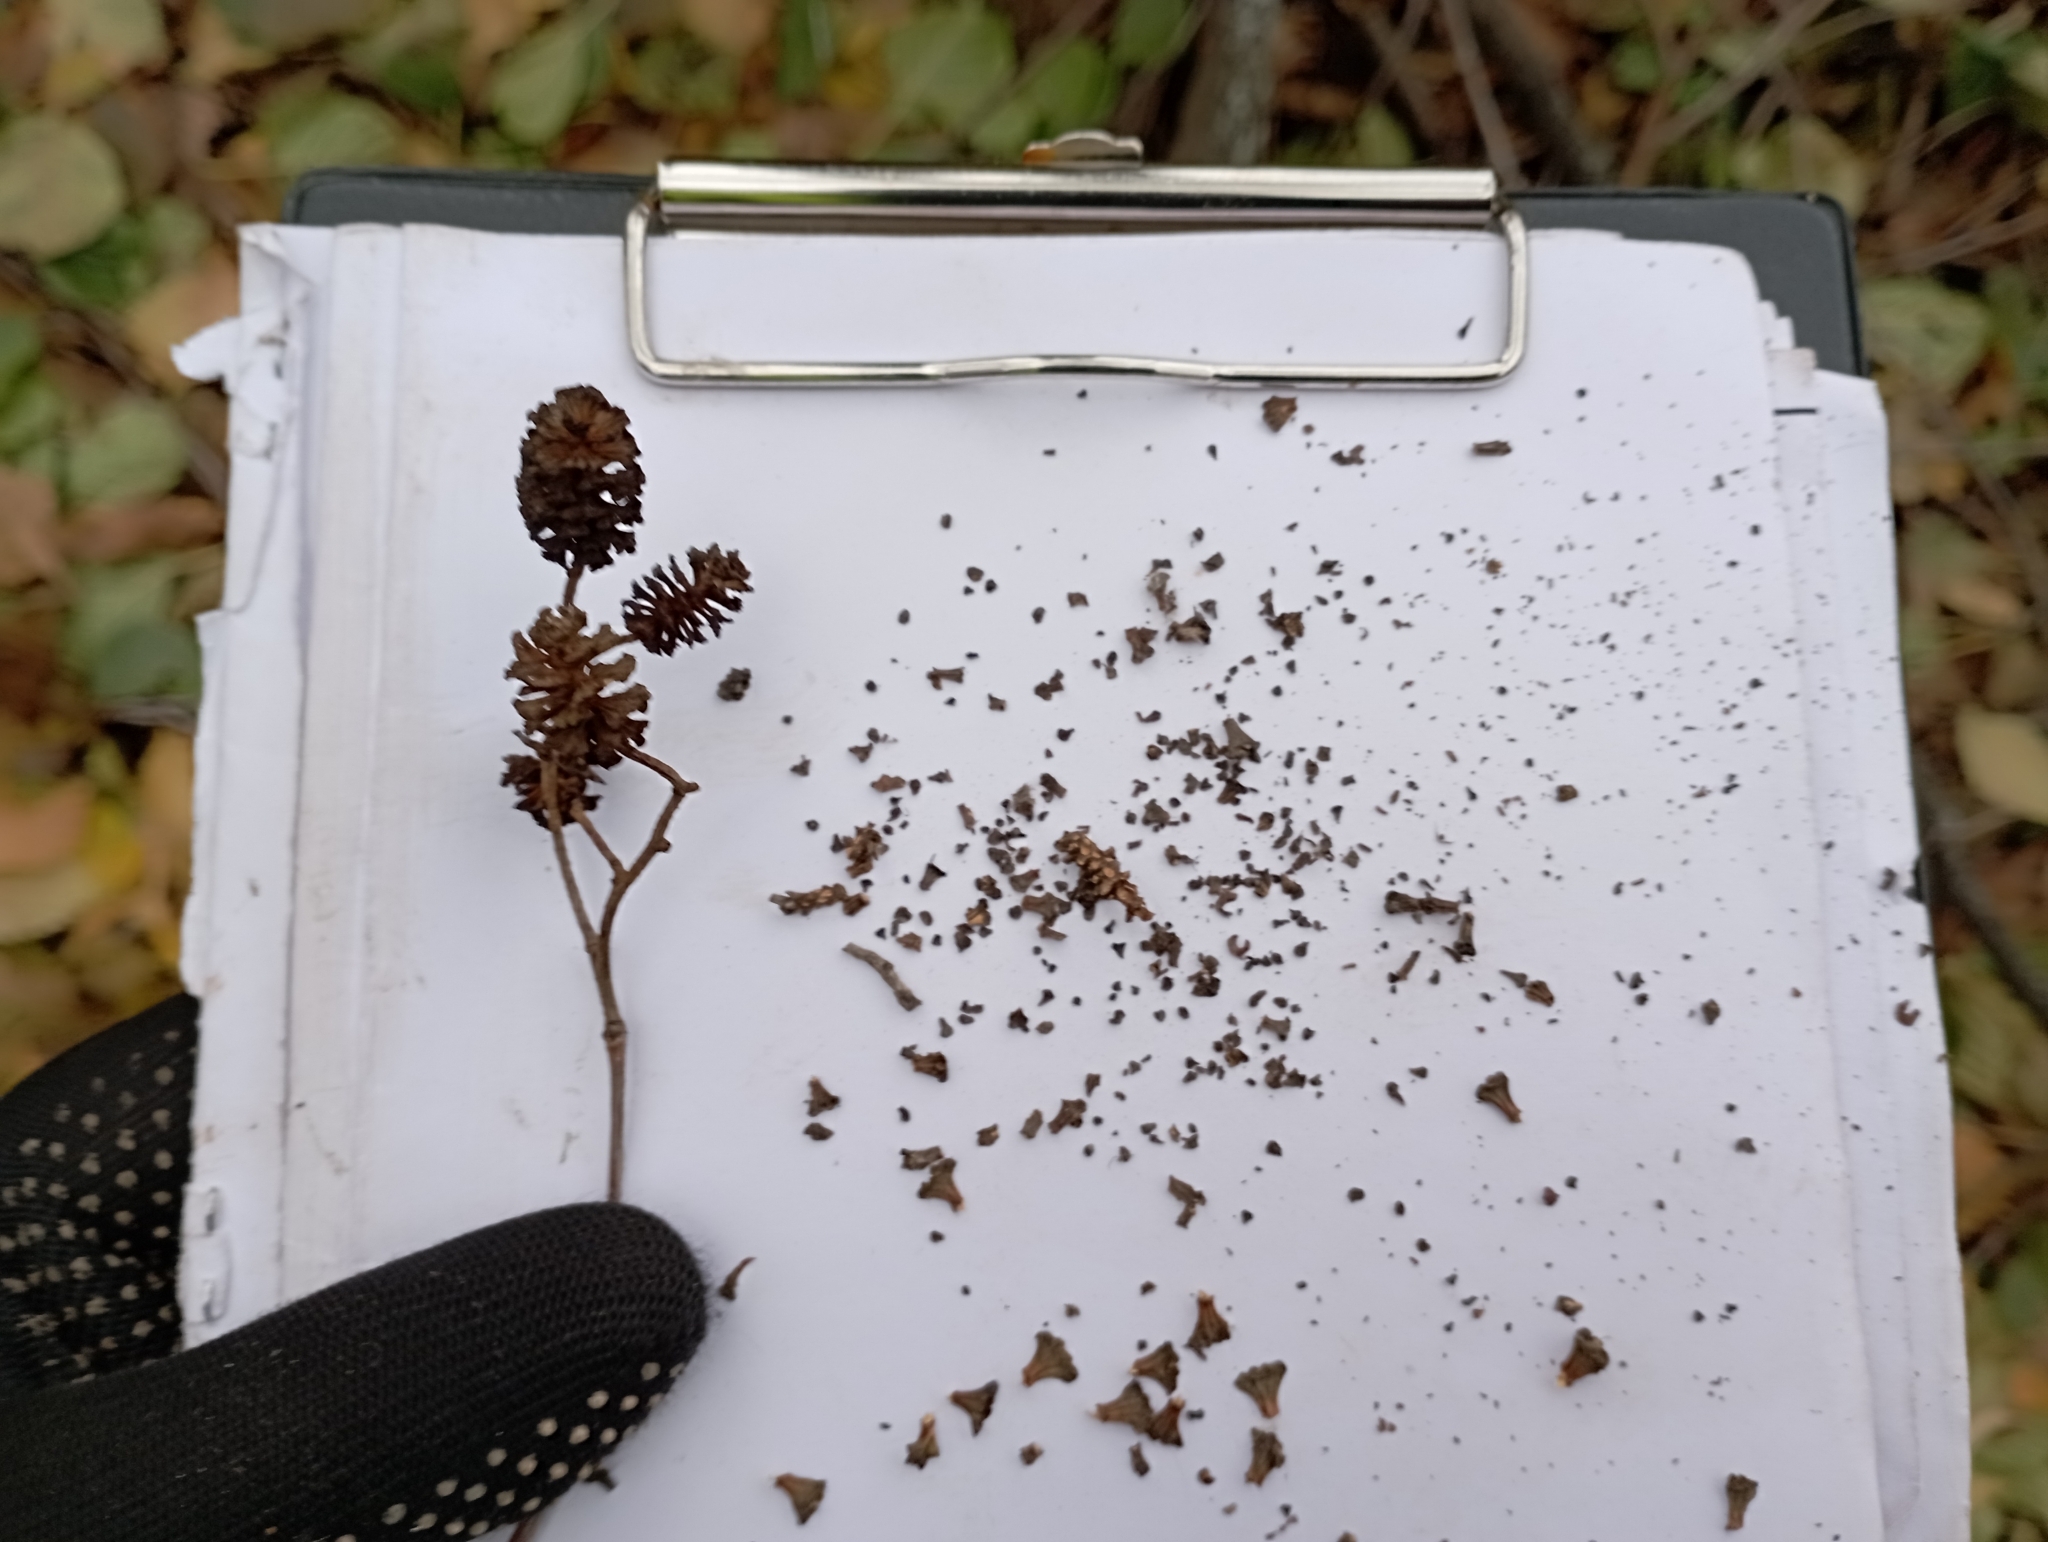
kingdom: Plantae
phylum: Tracheophyta
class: Magnoliopsida
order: Fagales
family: Betulaceae
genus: Alnus
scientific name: Alnus glutinosa
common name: Black alder
